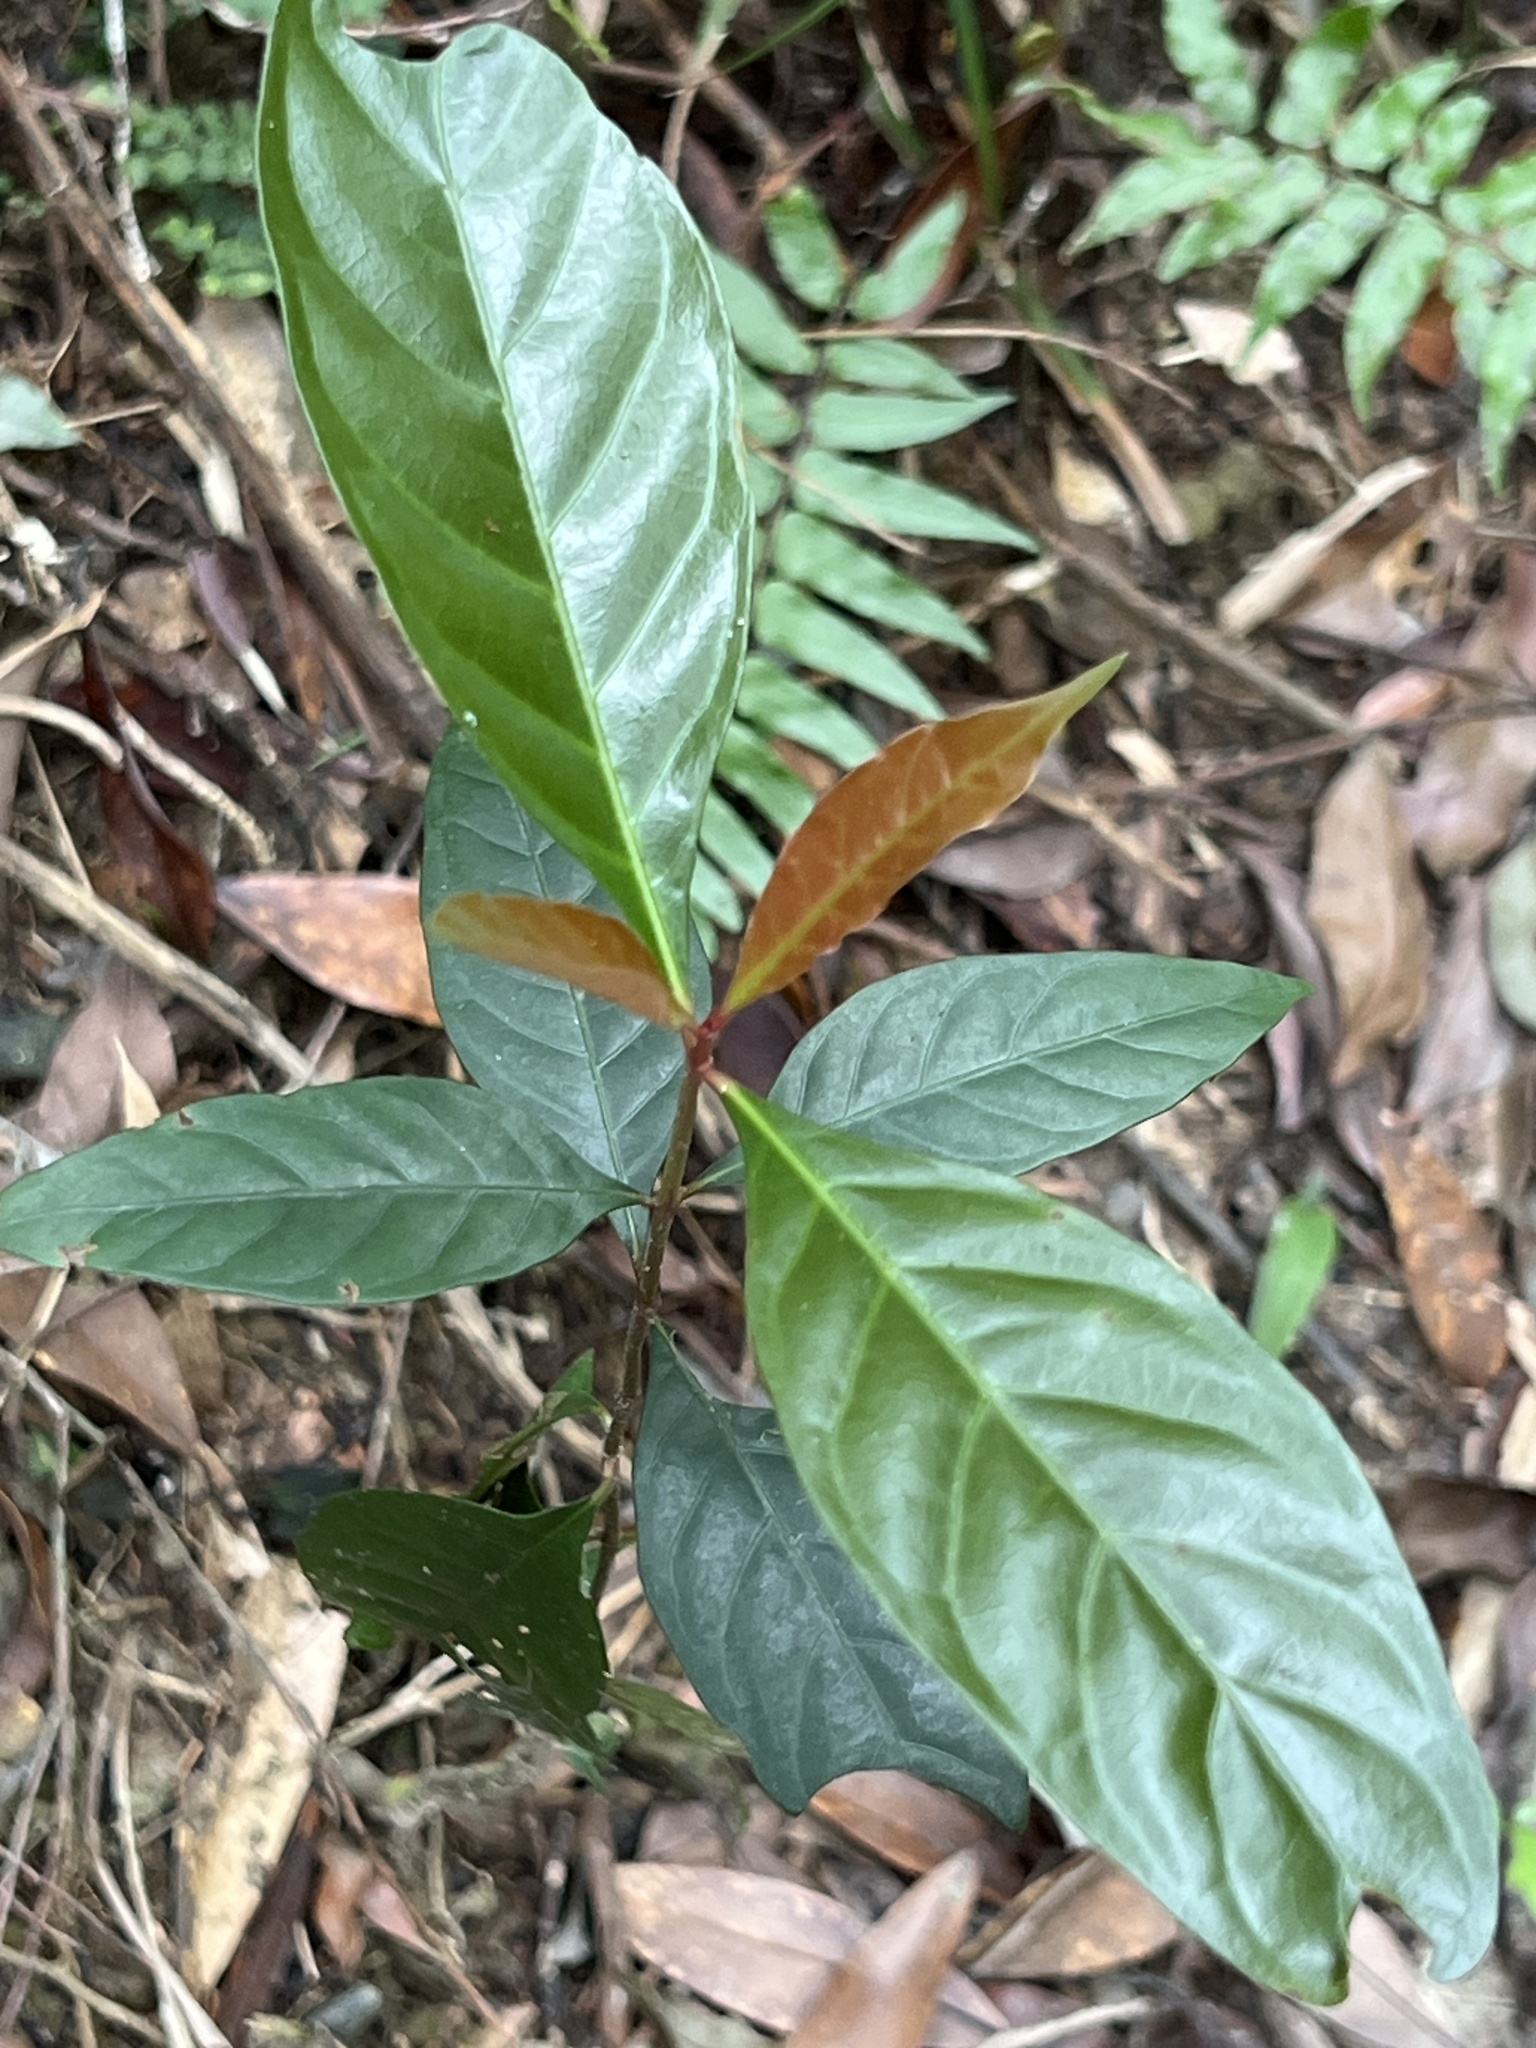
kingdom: Plantae
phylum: Tracheophyta
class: Magnoliopsida
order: Gentianales
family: Rubiaceae
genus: Aidia
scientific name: Aidia cochinchinensis
